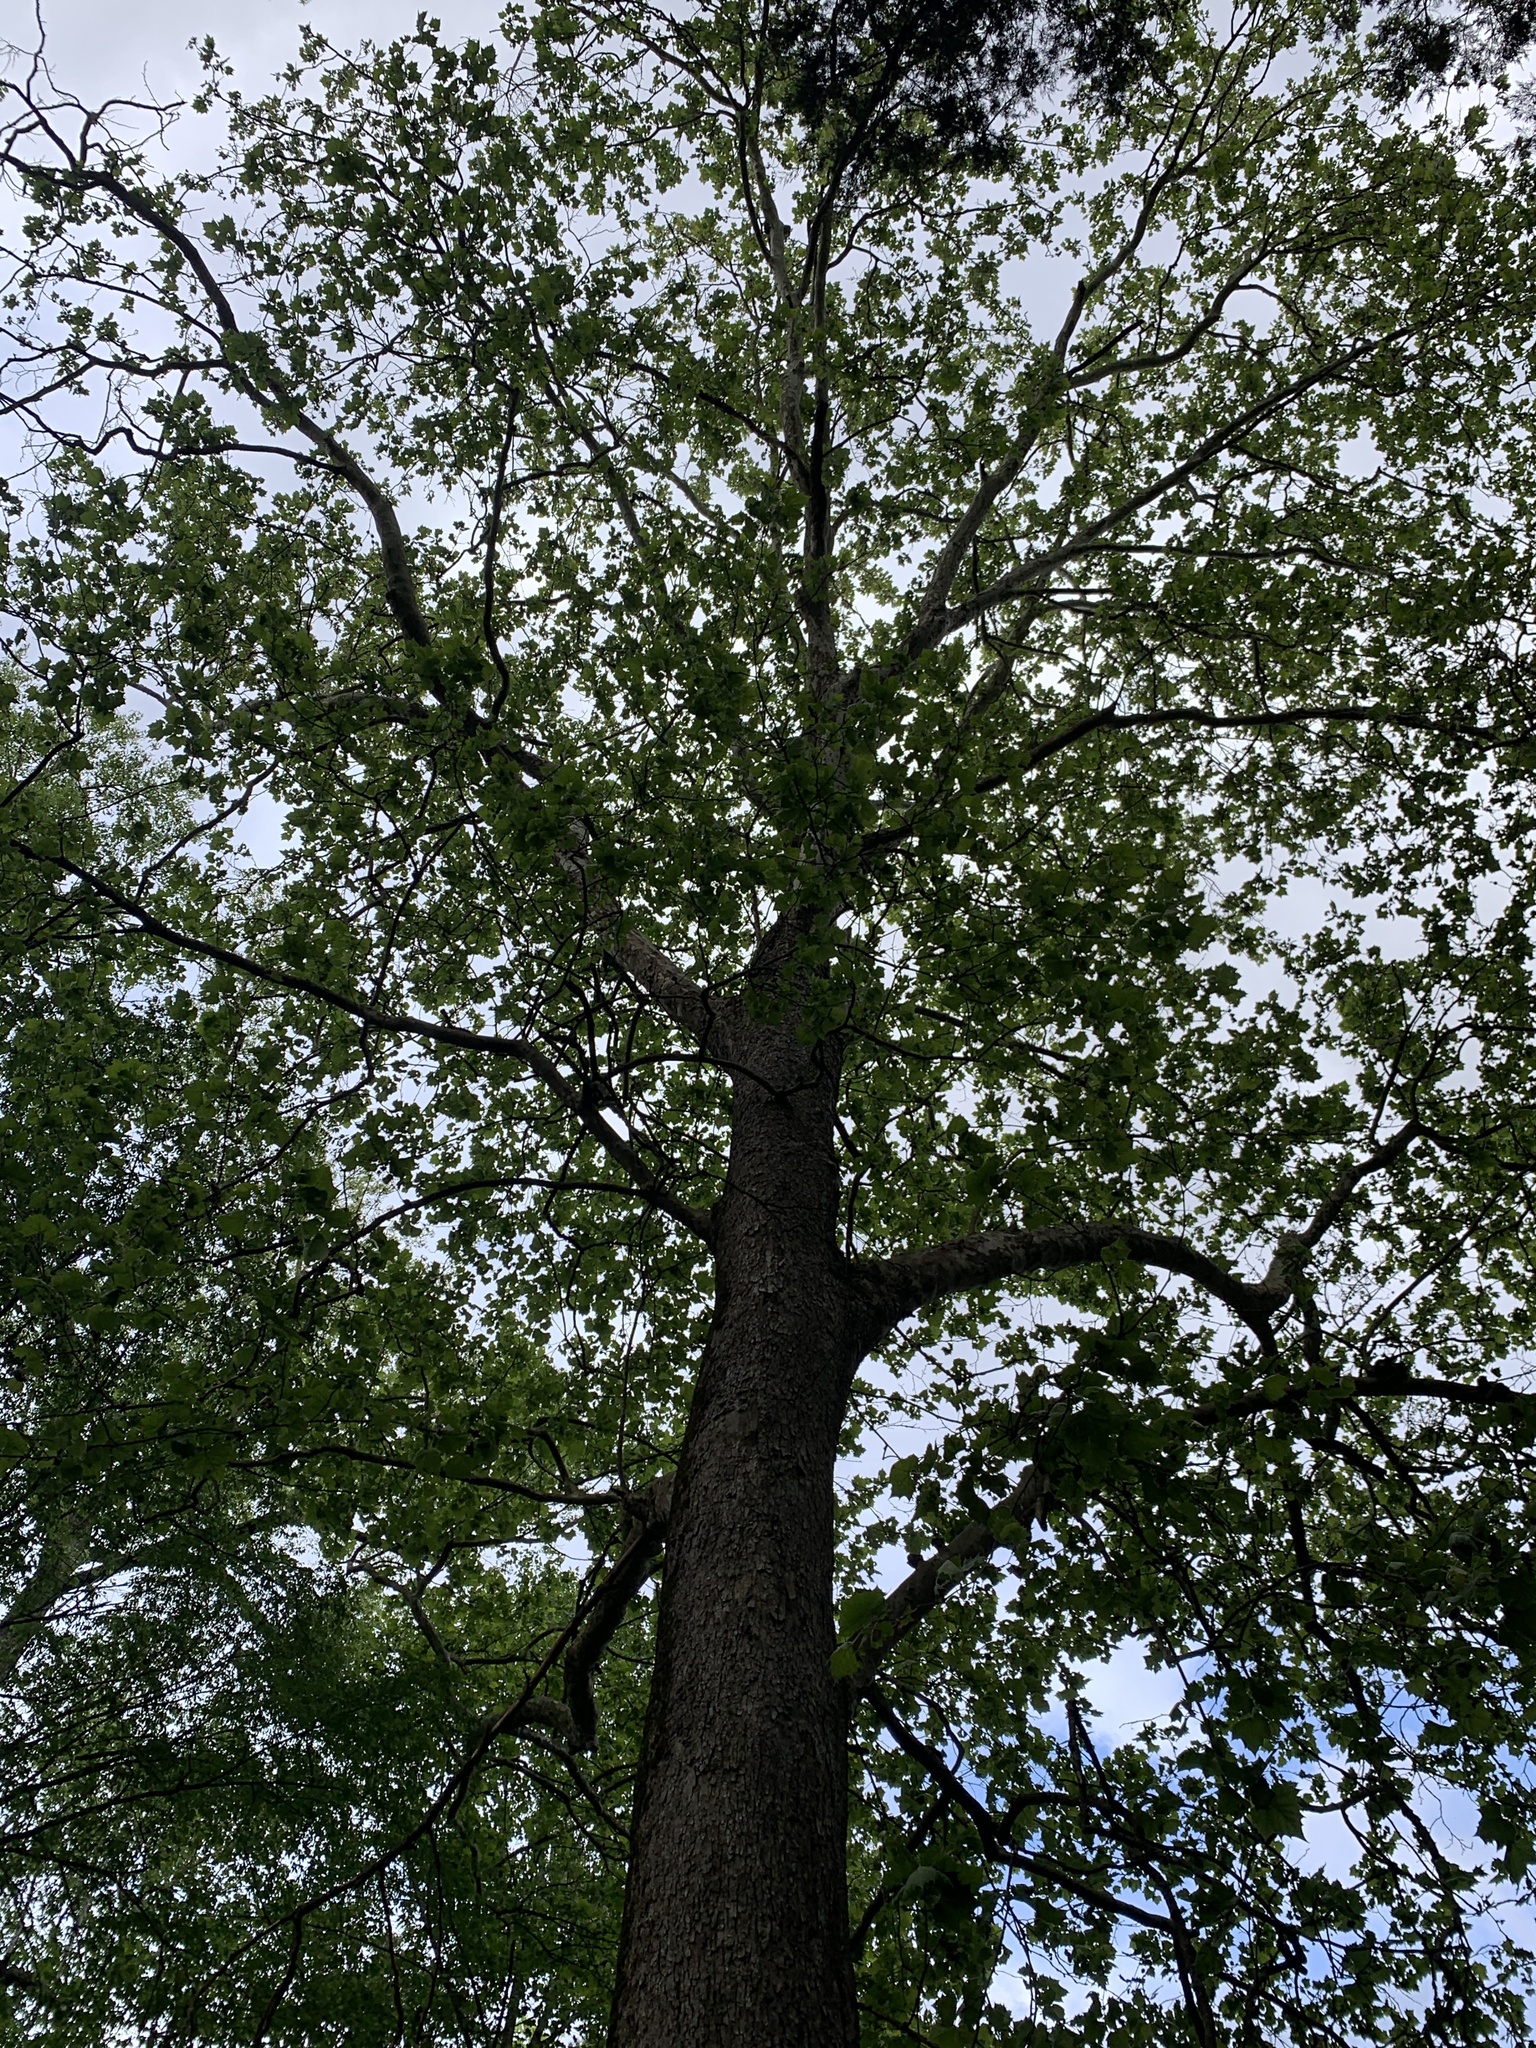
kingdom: Plantae
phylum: Tracheophyta
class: Magnoliopsida
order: Proteales
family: Platanaceae
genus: Platanus
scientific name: Platanus occidentalis
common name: American sycamore
